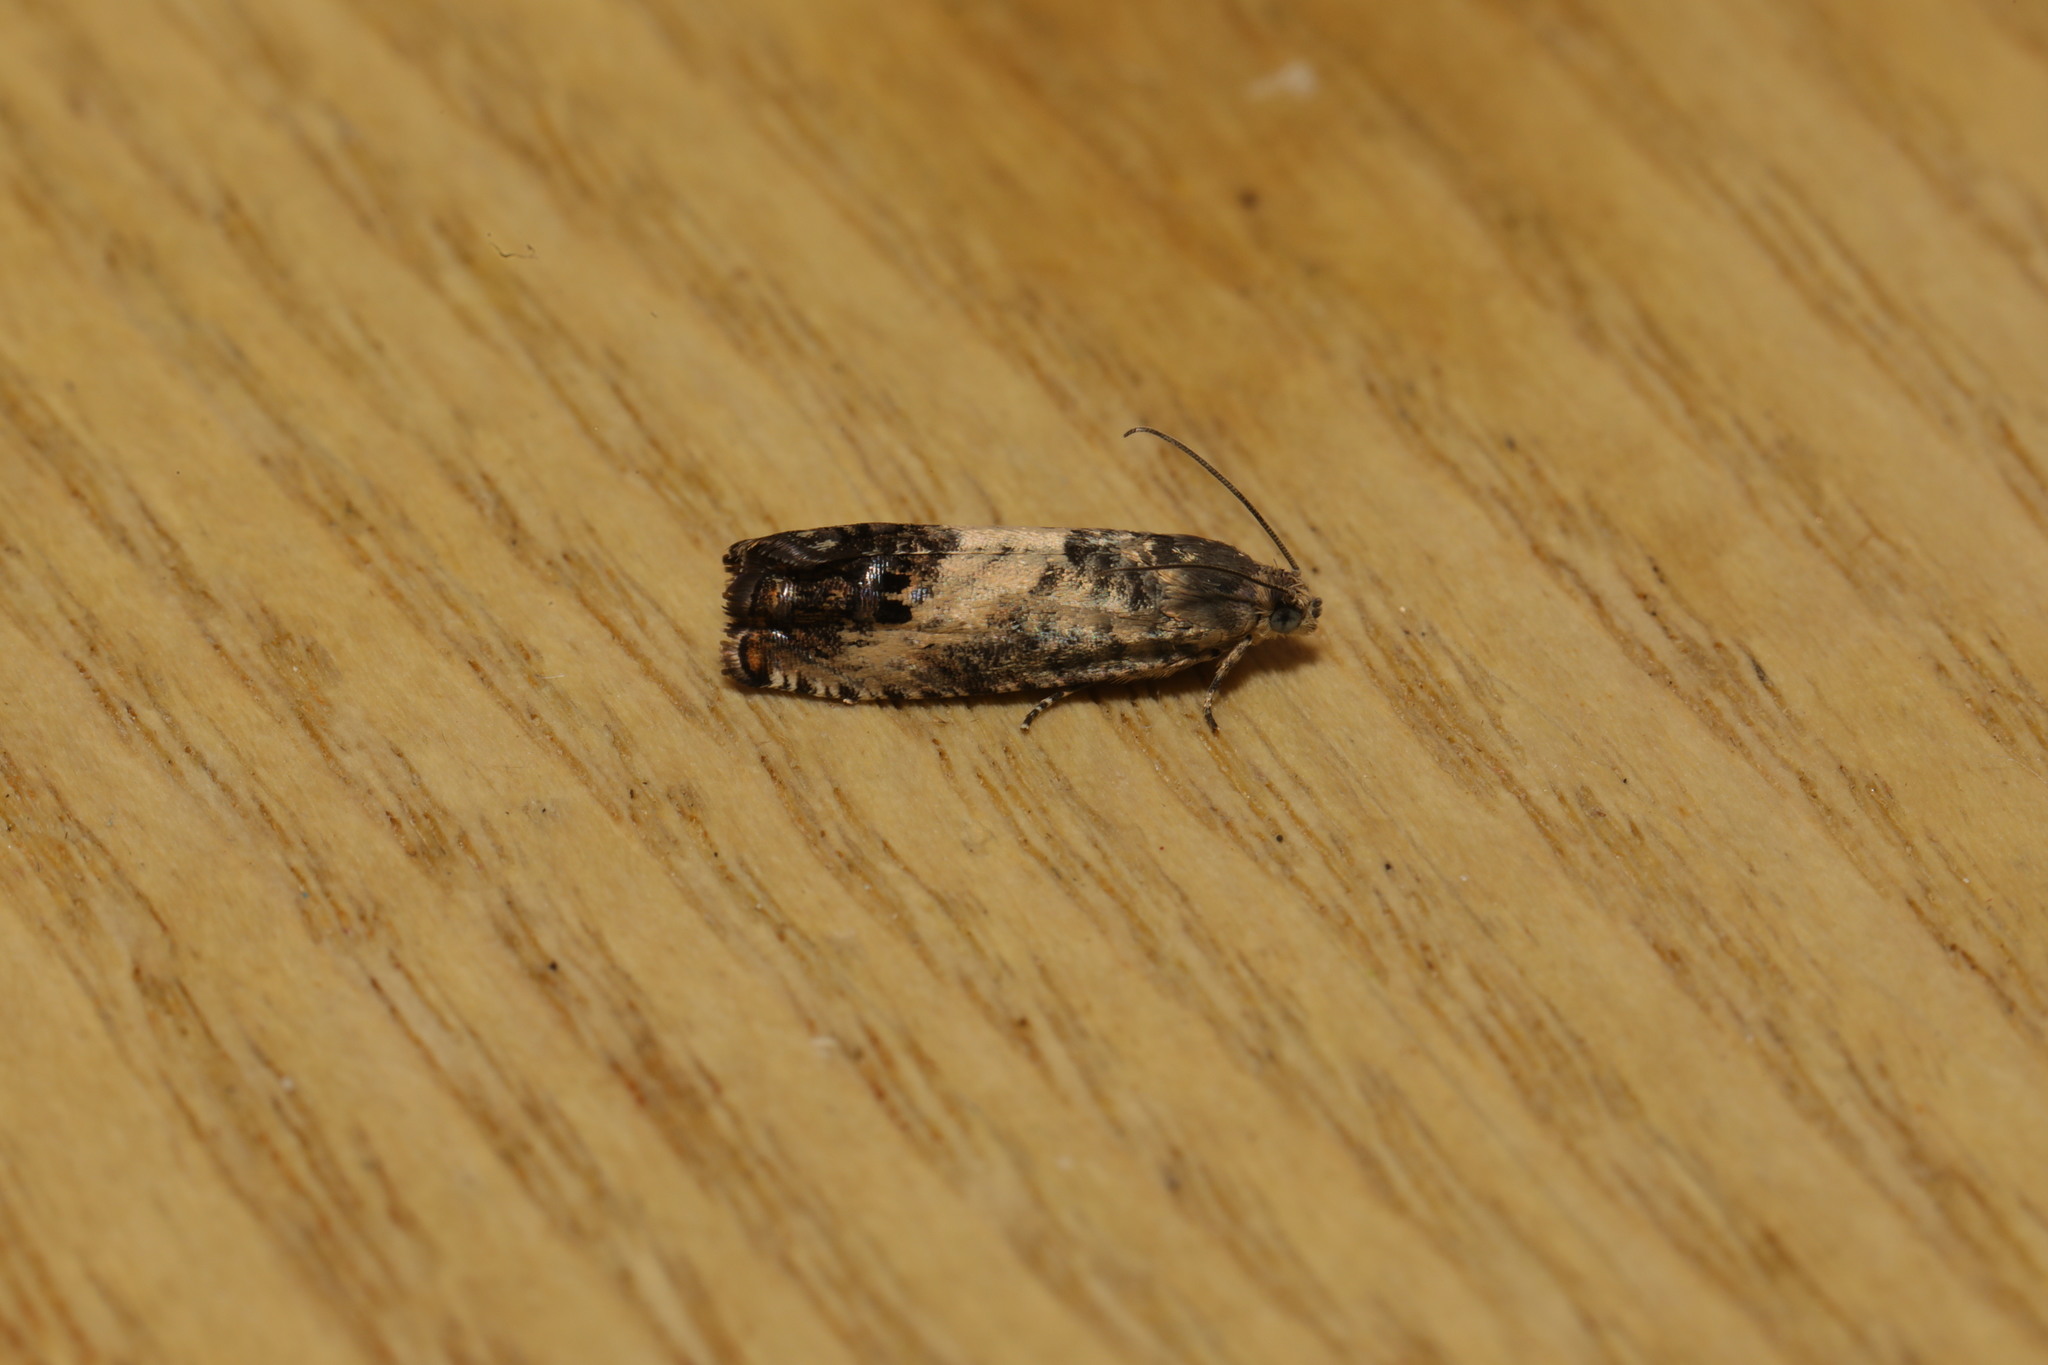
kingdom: Animalia
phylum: Arthropoda
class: Insecta
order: Lepidoptera
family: Tortricidae
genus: Pammene
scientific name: Pammene fasciana
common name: Acorn piercer
